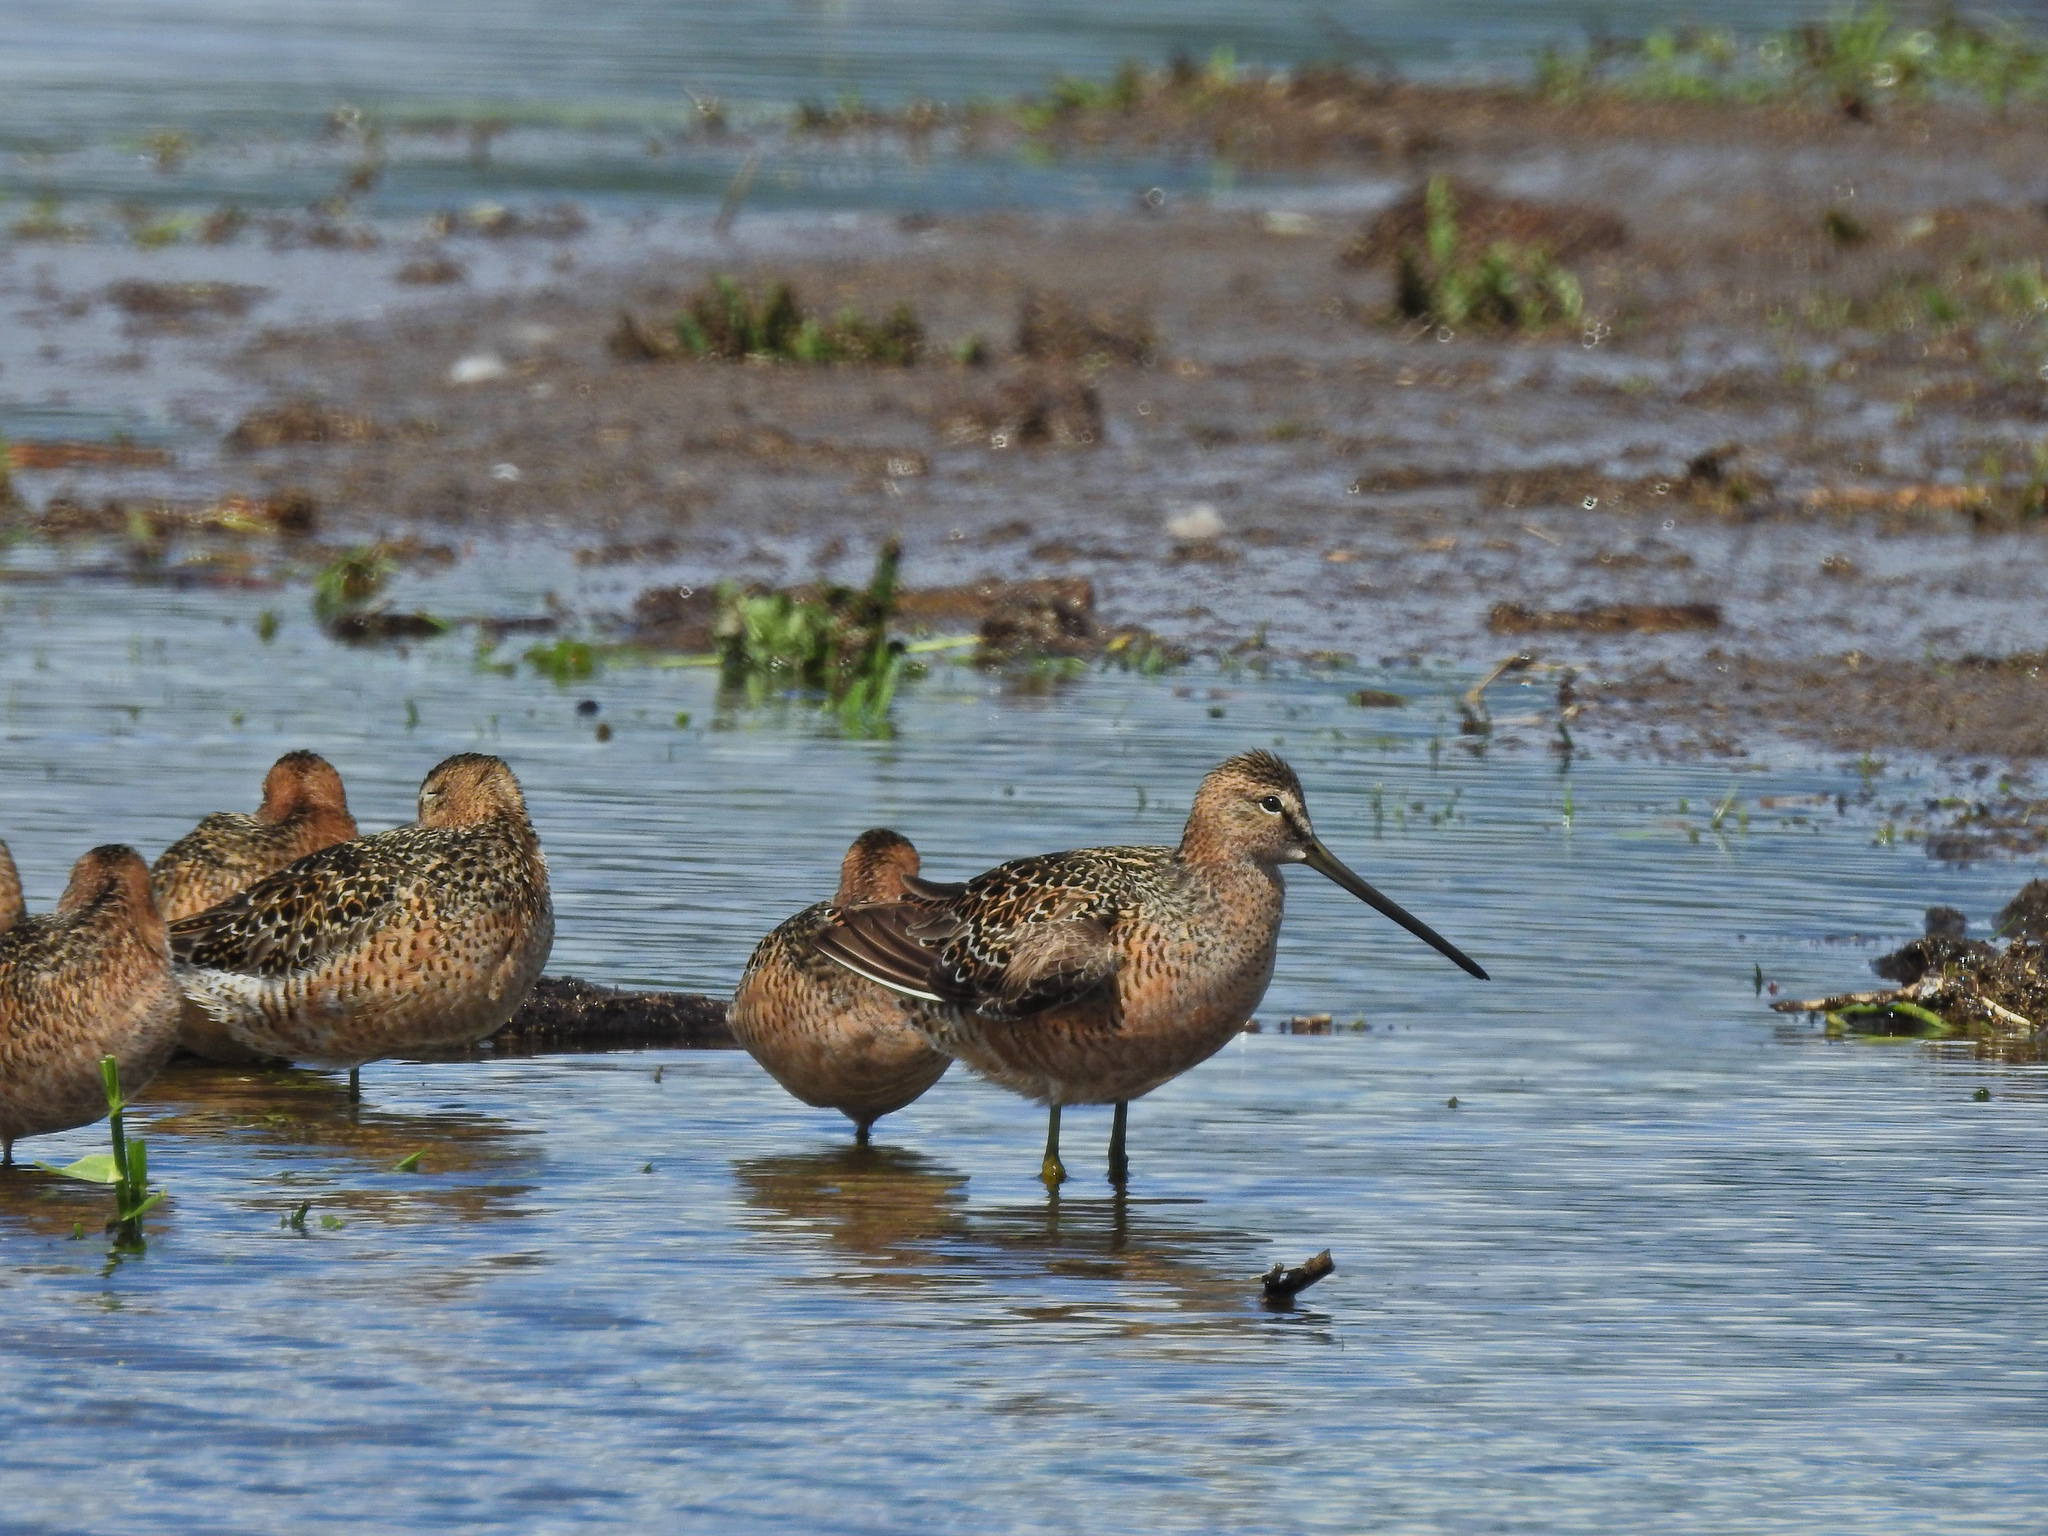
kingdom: Animalia
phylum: Chordata
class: Aves
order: Charadriiformes
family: Scolopacidae
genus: Limnodromus
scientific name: Limnodromus scolopaceus
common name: Long-billed dowitcher
